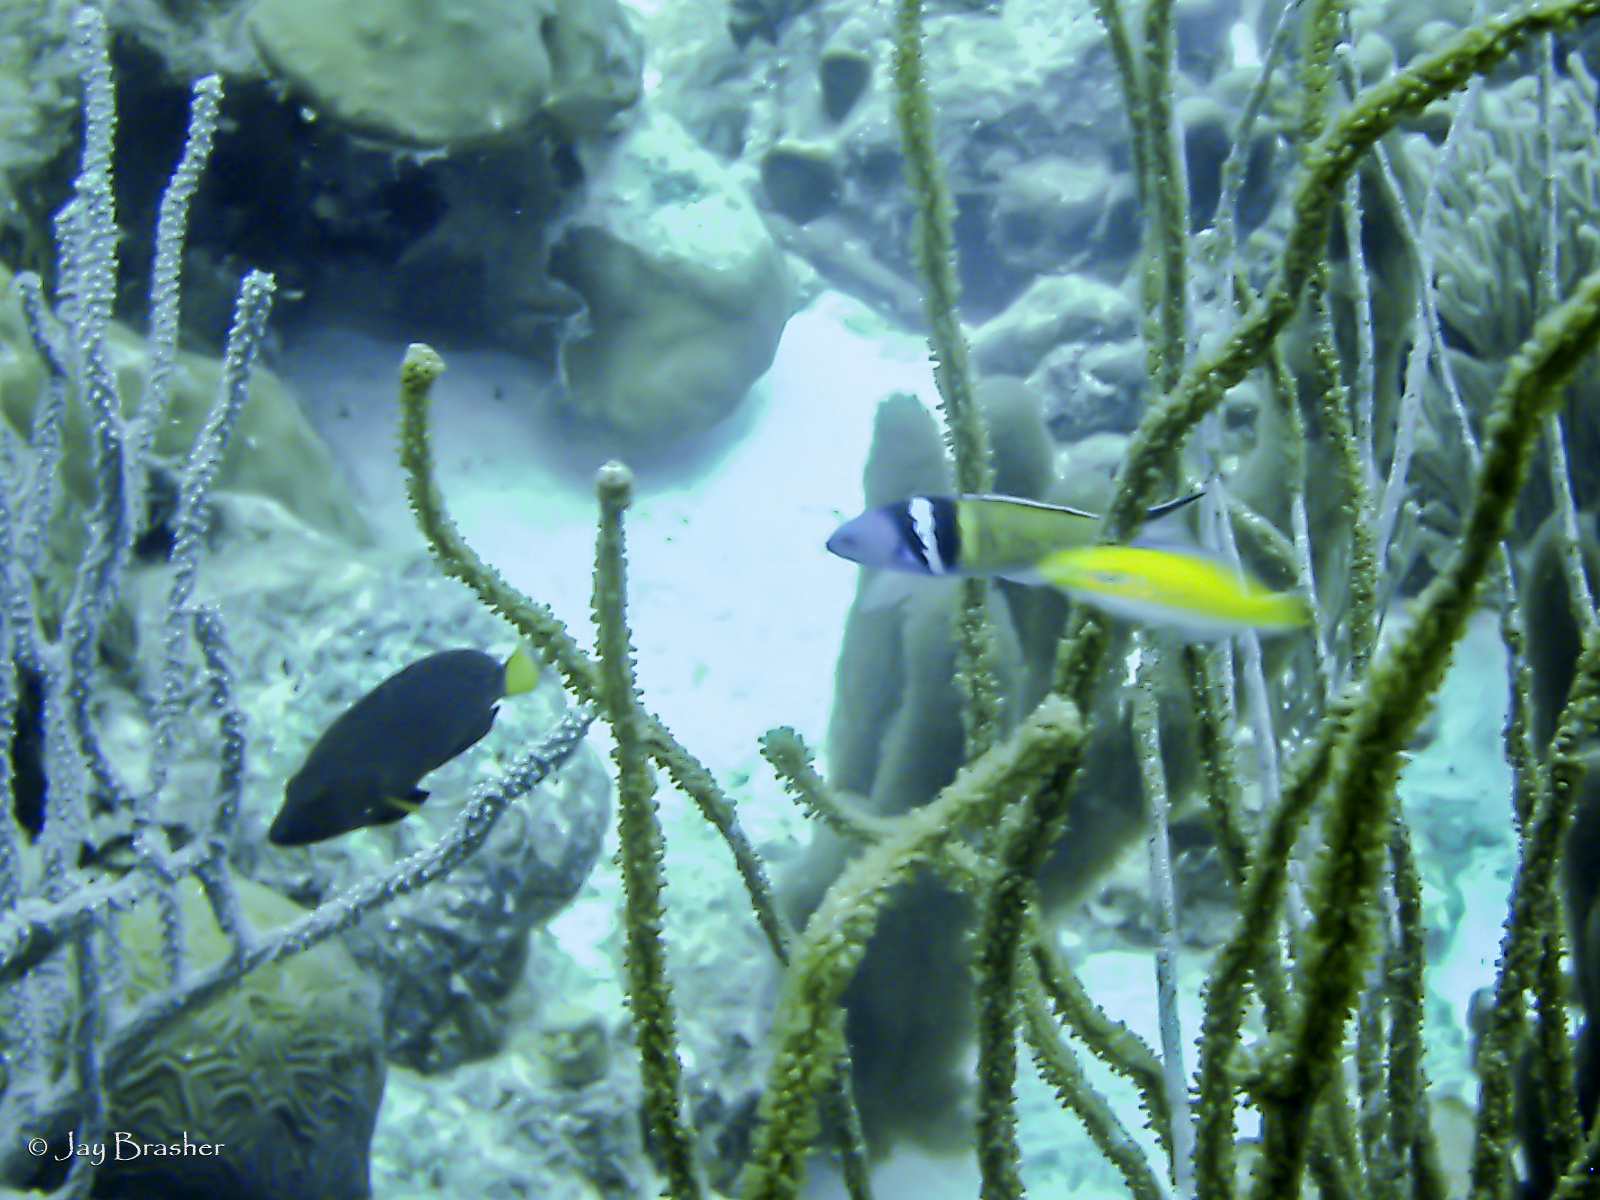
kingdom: Animalia
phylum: Chordata
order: Perciformes
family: Labridae
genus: Thalassoma
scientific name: Thalassoma bifasciatum
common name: Bluehead wrasse
